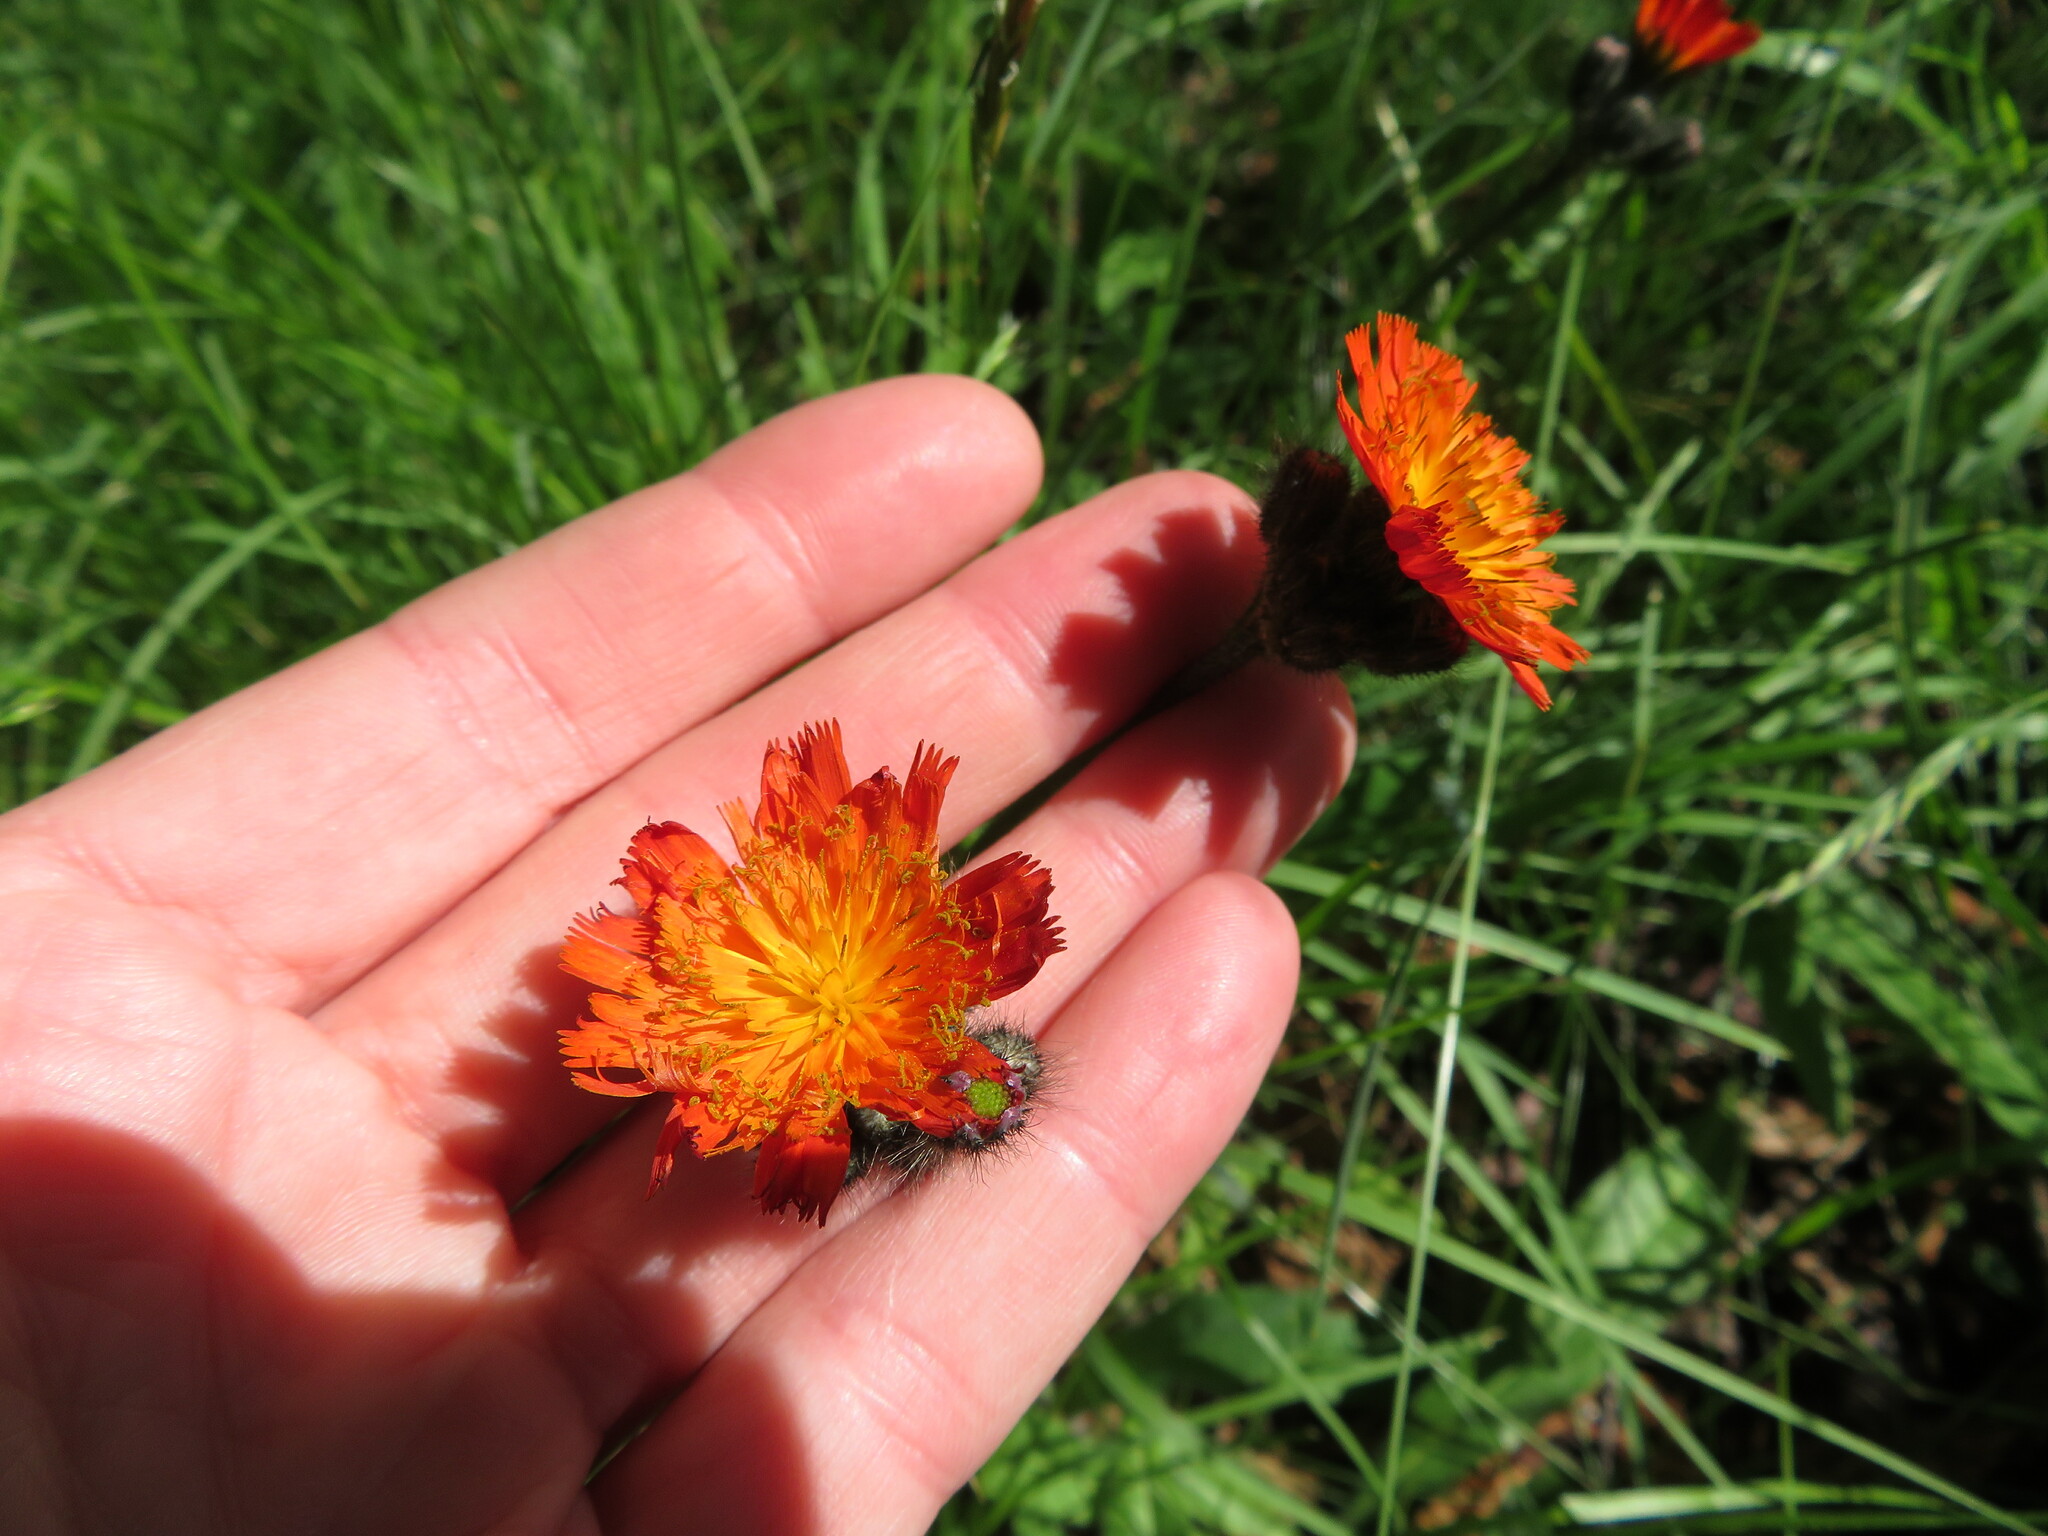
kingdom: Plantae
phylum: Tracheophyta
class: Magnoliopsida
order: Asterales
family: Asteraceae
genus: Pilosella
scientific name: Pilosella aurantiaca
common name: Fox-and-cubs
